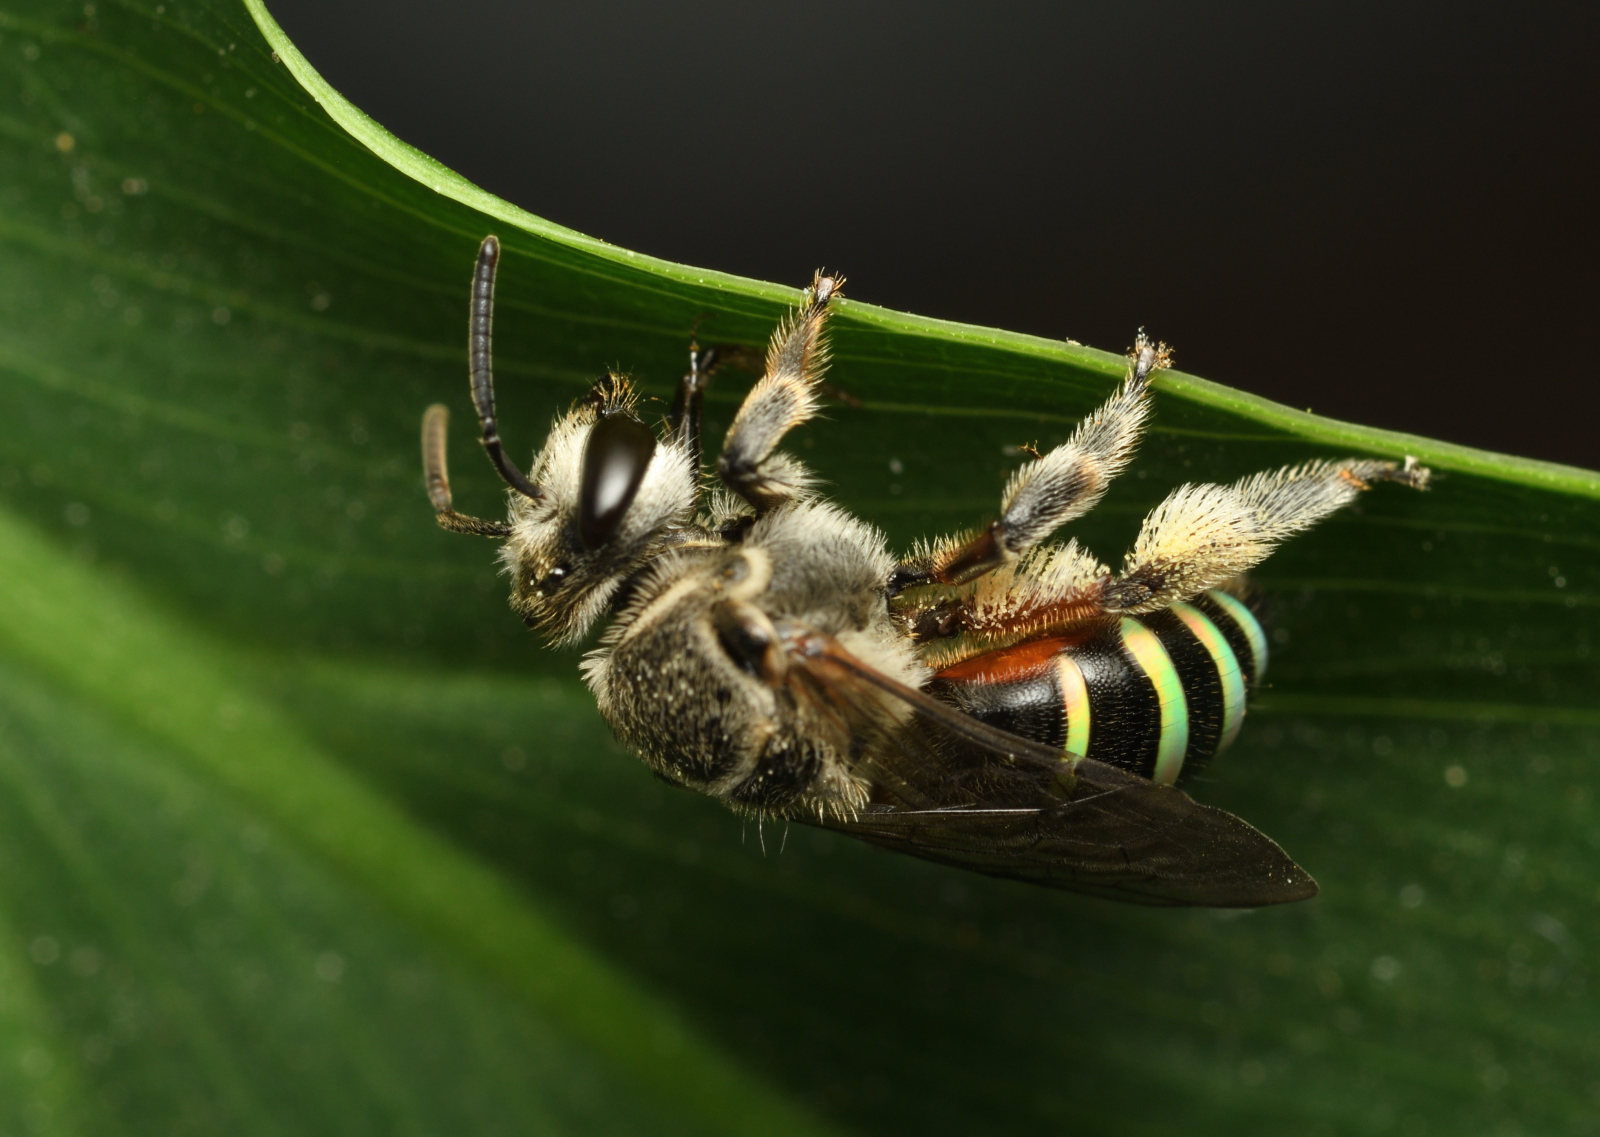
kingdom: Animalia
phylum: Arthropoda
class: Insecta
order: Hymenoptera
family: Halictidae
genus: Nomia
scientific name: Nomia westwoodi
